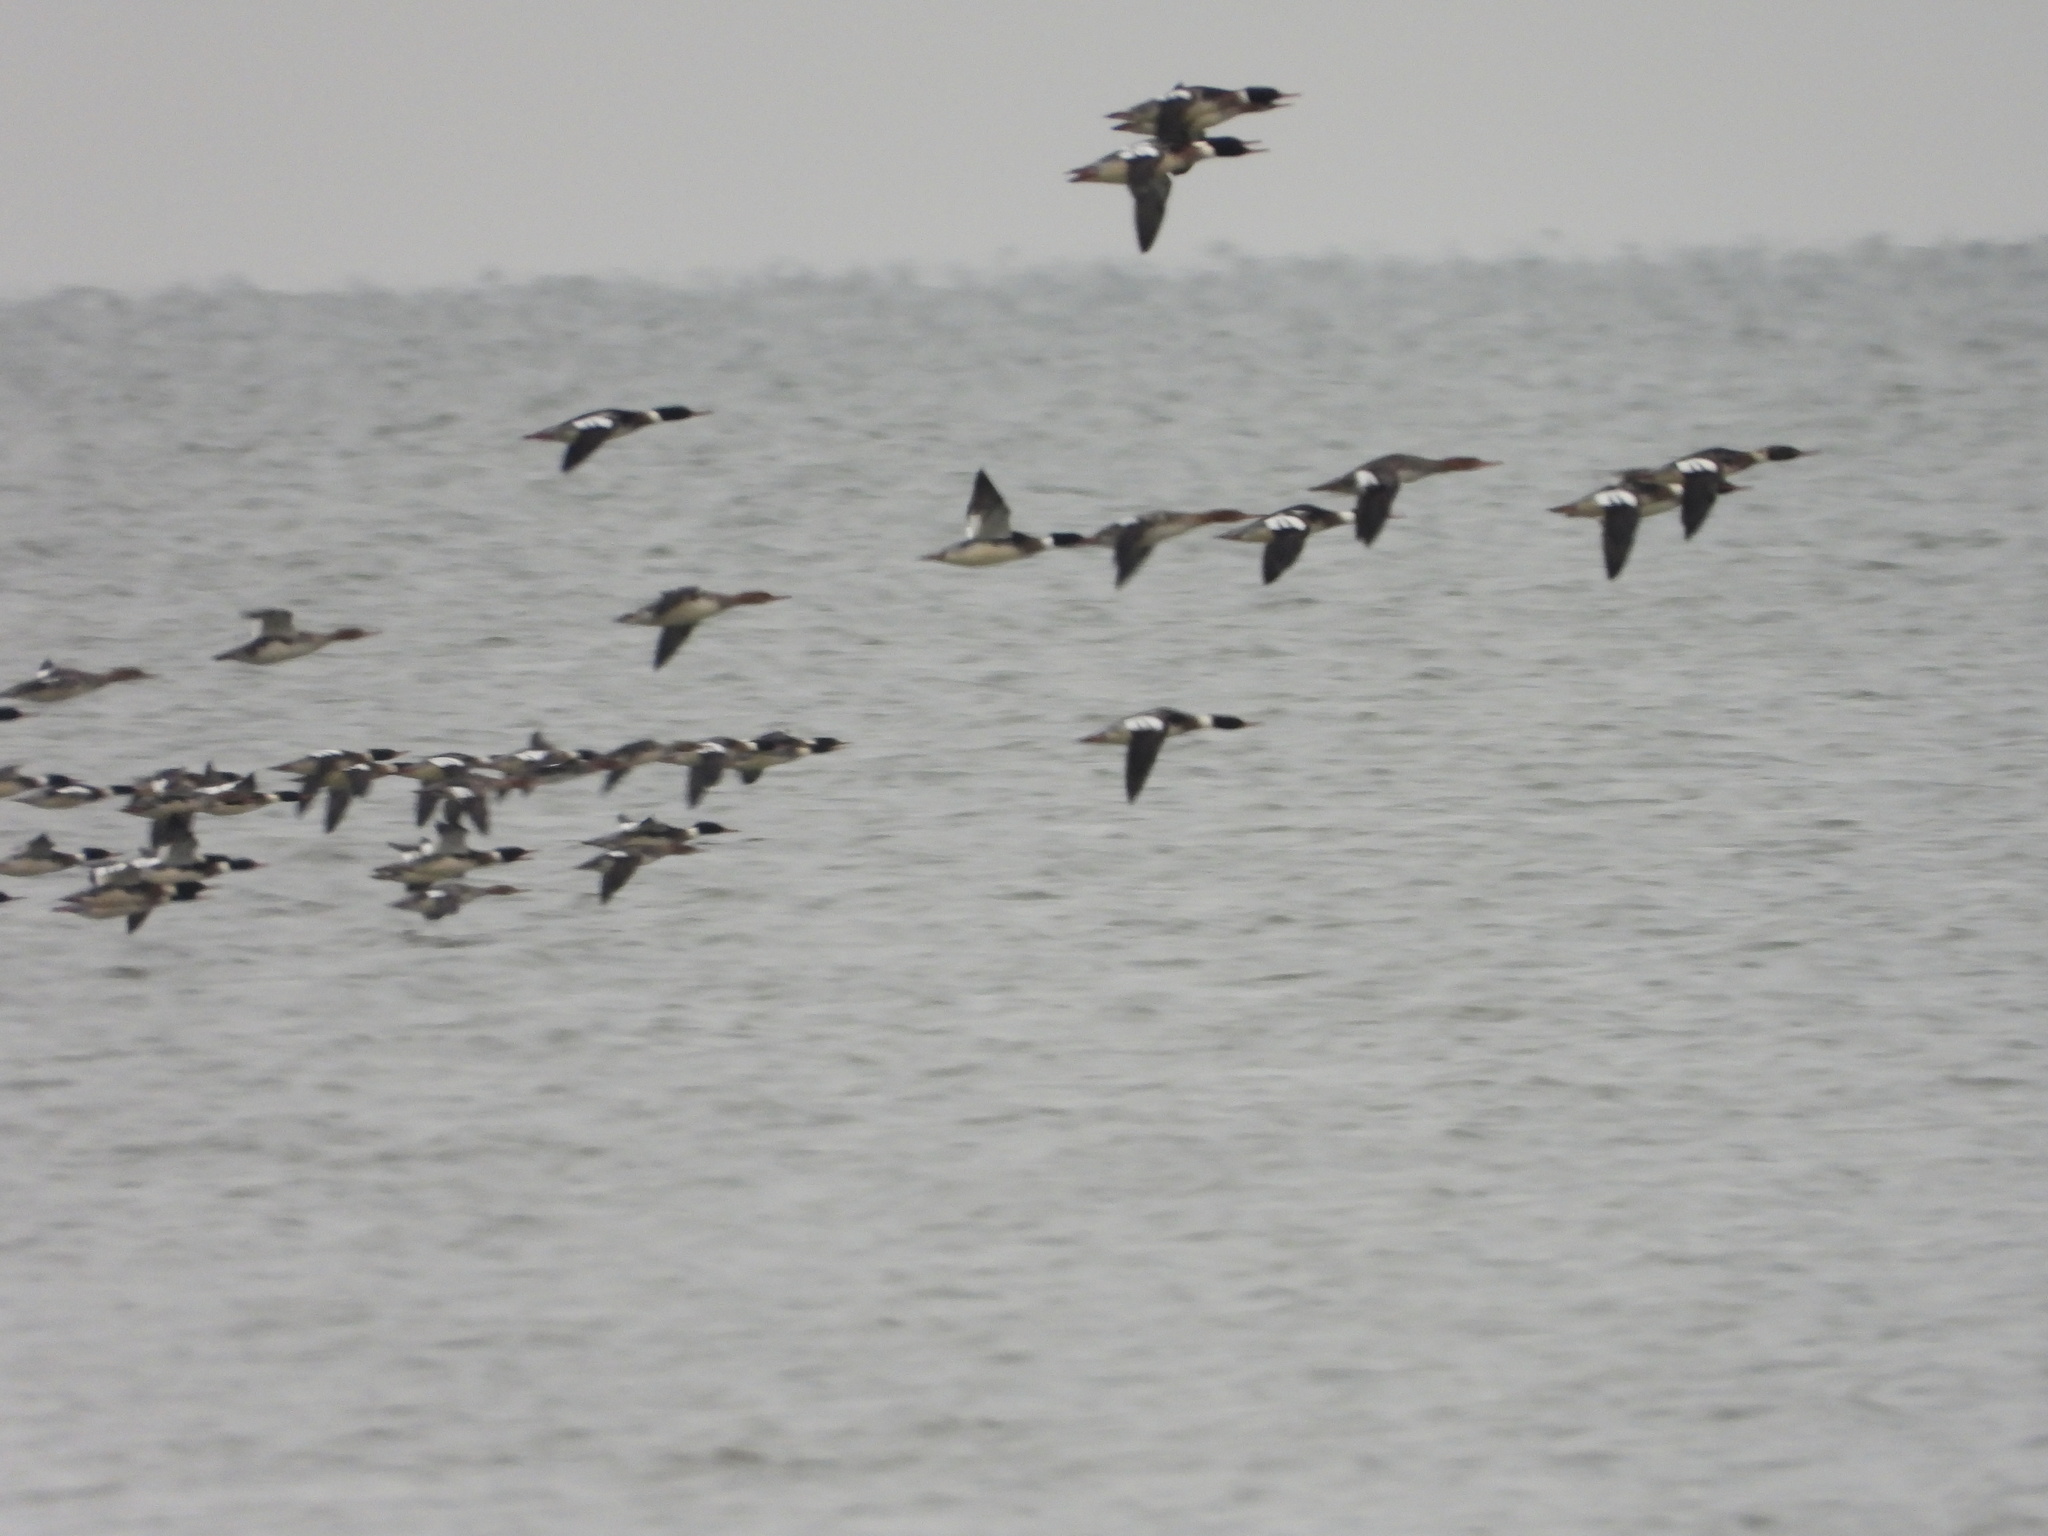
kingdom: Animalia
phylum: Chordata
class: Aves
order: Anseriformes
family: Anatidae
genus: Mergus
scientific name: Mergus serrator
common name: Red-breasted merganser
